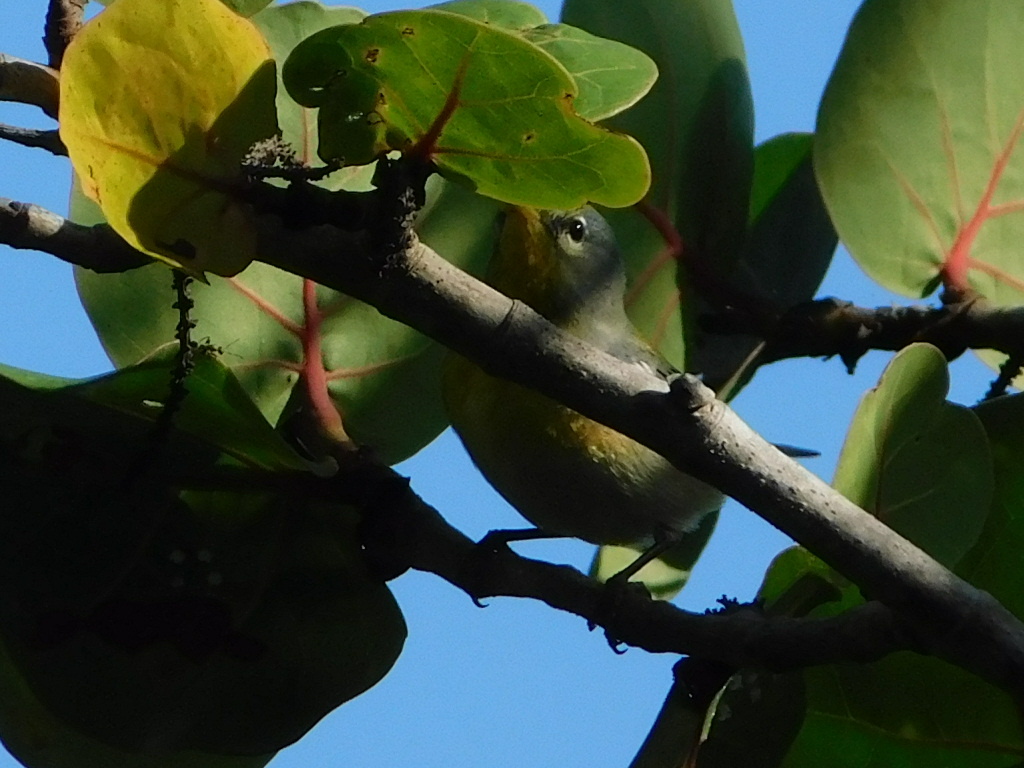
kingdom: Animalia
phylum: Chordata
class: Aves
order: Passeriformes
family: Parulidae
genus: Setophaga
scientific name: Setophaga americana
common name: Northern parula
